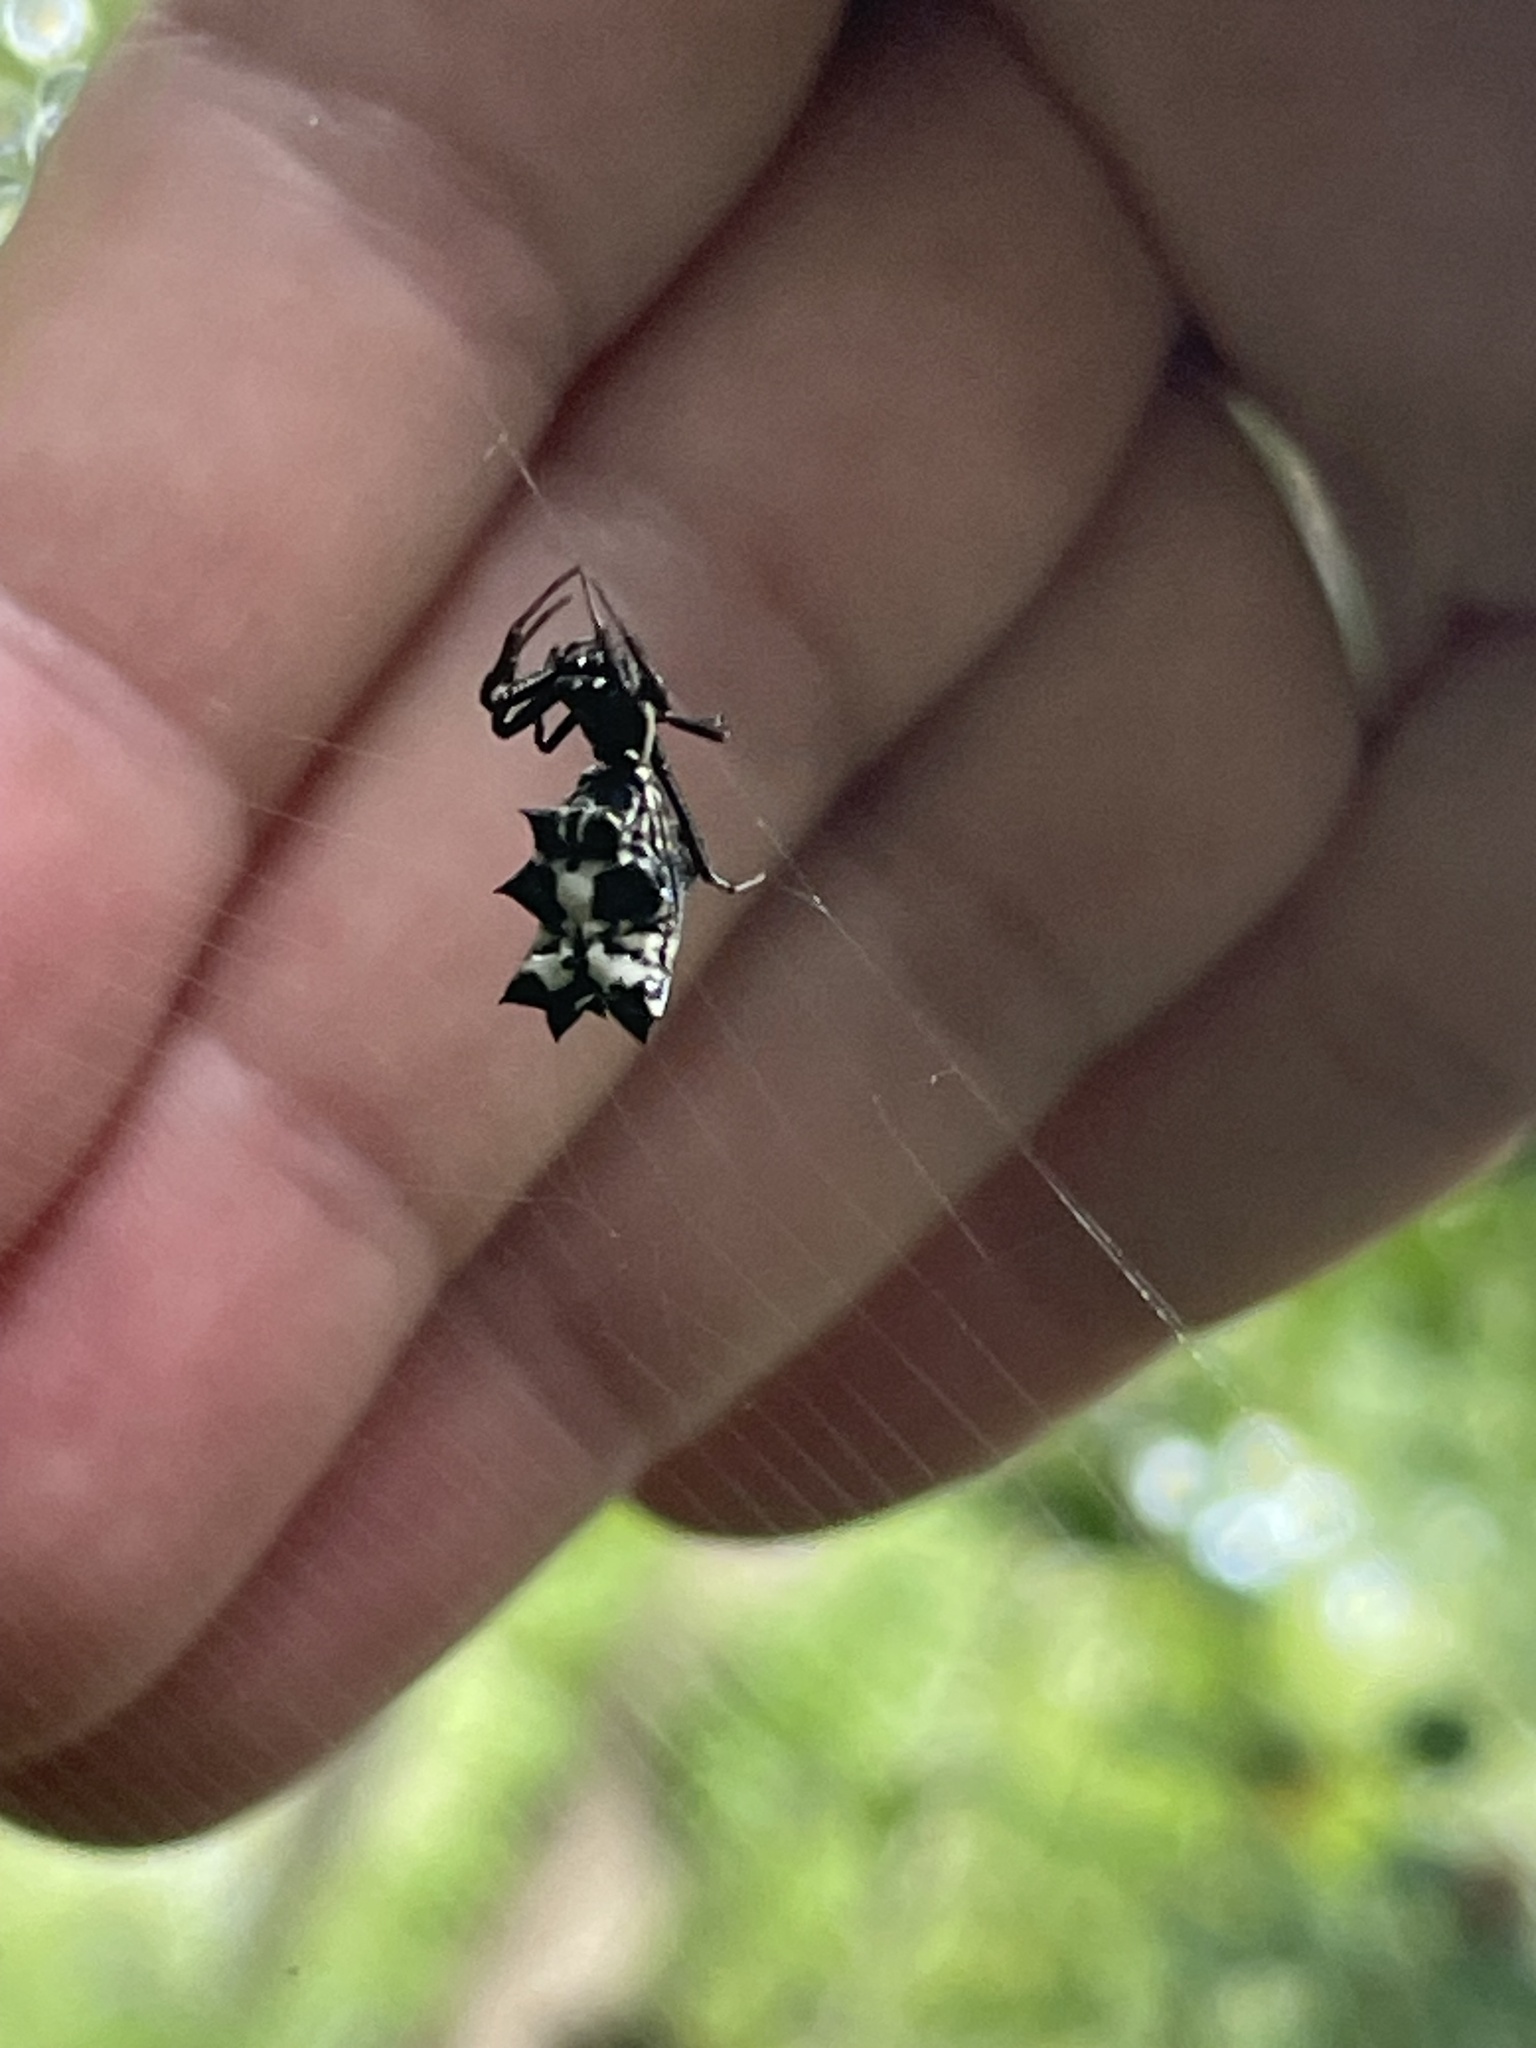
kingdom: Animalia
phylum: Arthropoda
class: Arachnida
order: Araneae
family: Araneidae
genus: Micrathena
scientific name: Micrathena gracilis
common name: Orb weavers
